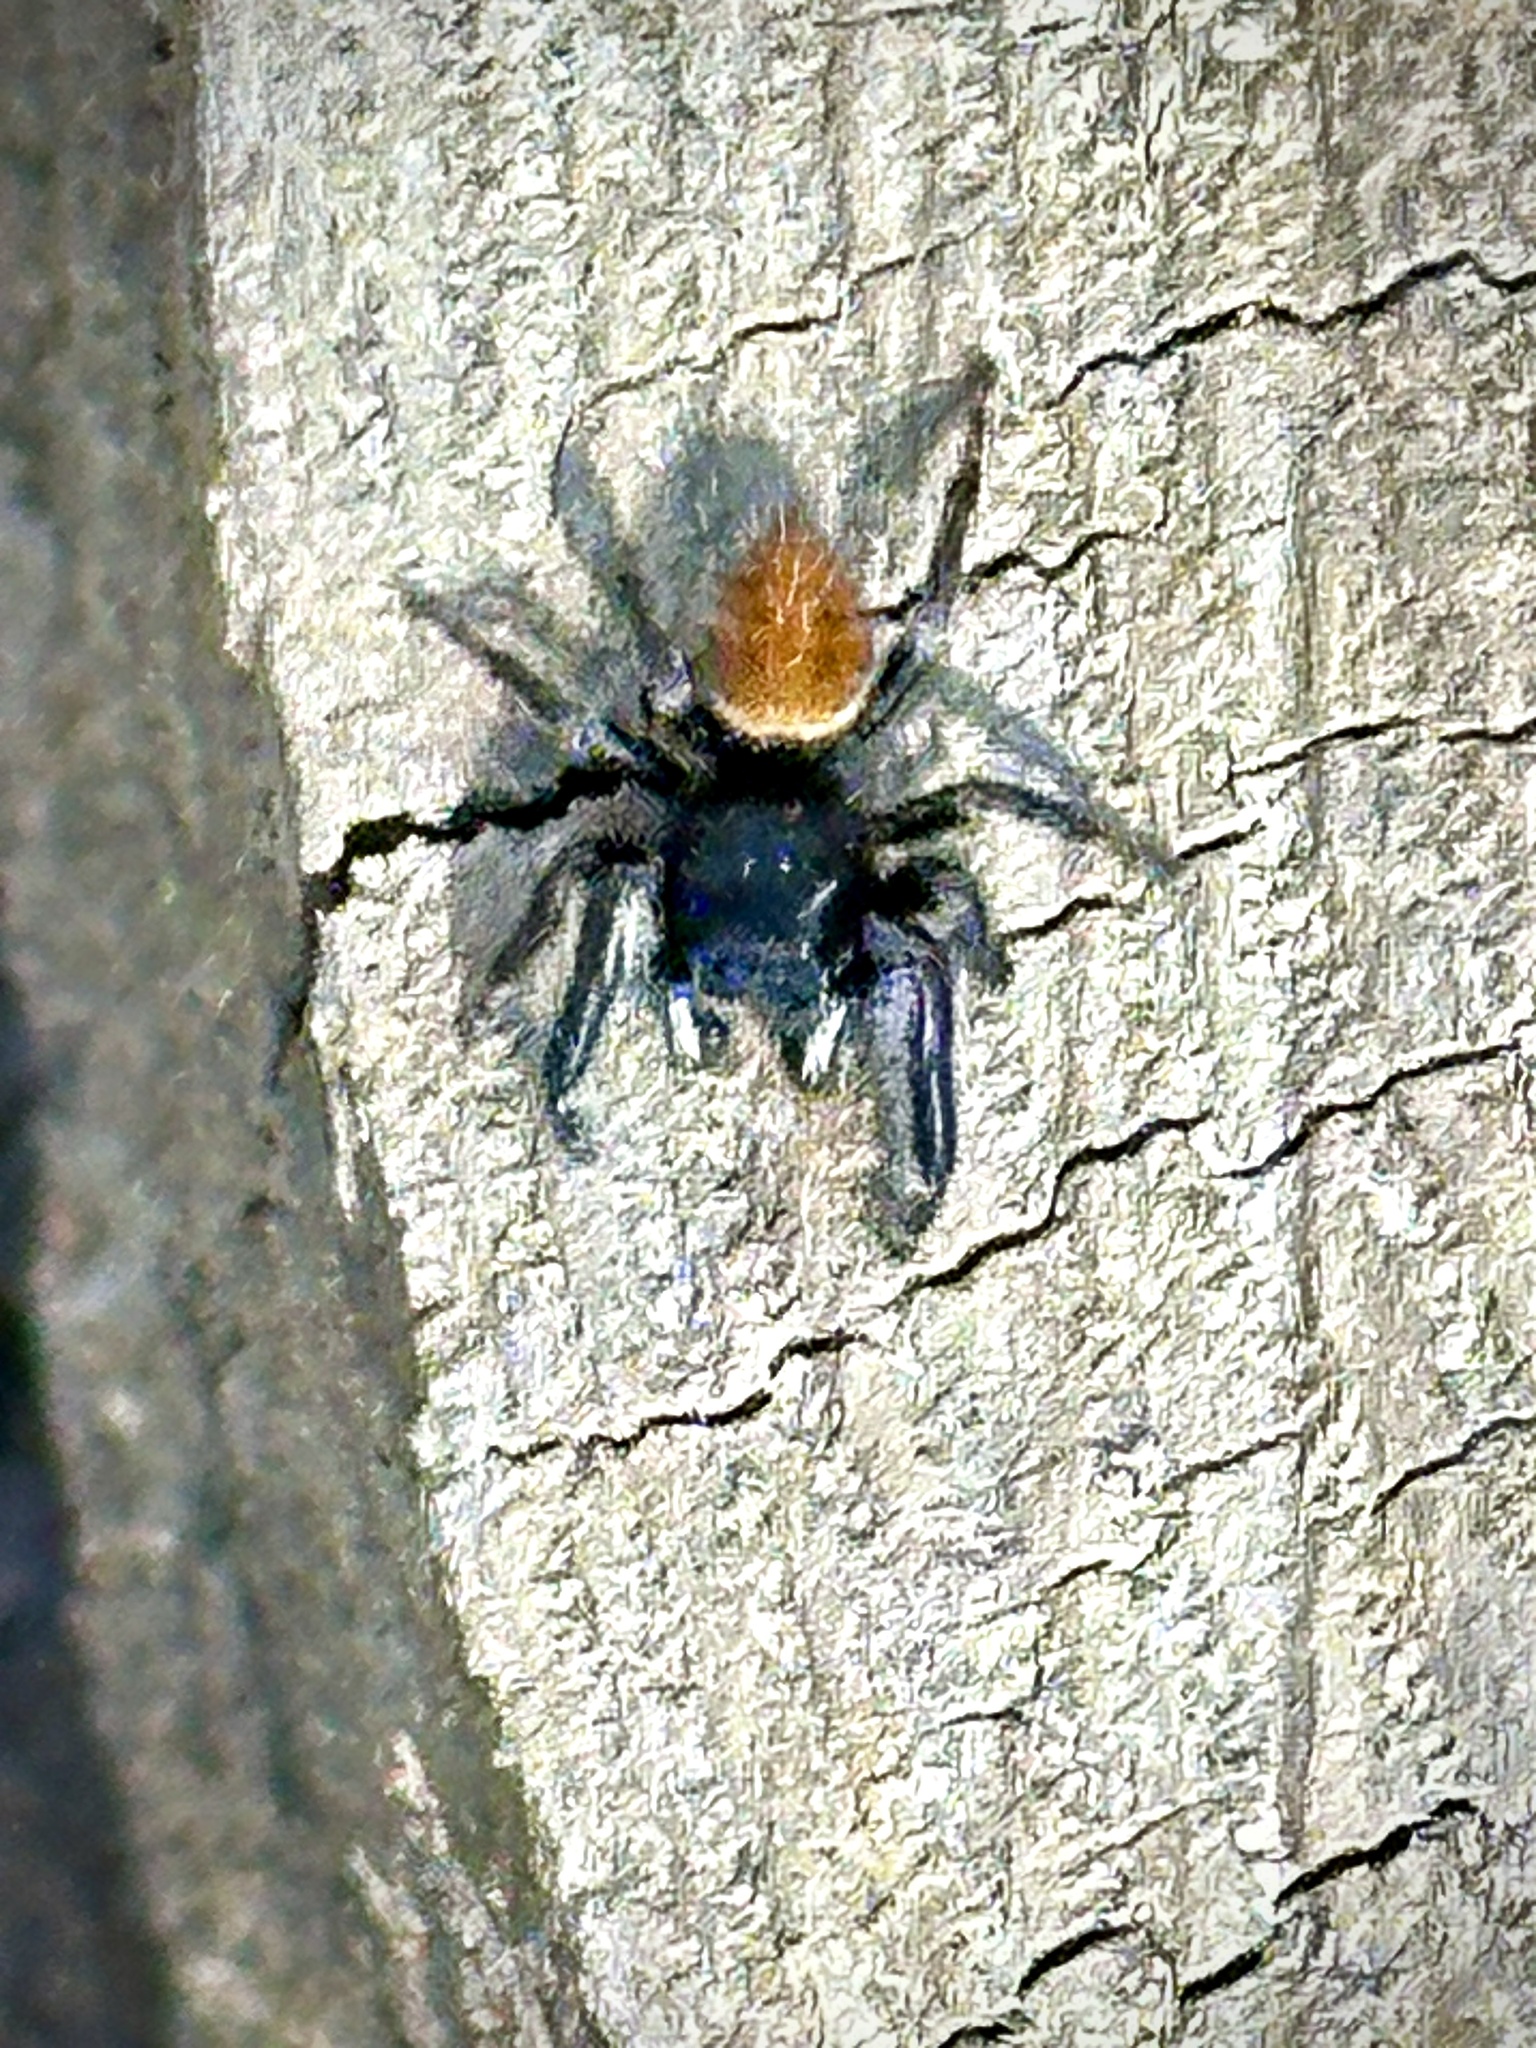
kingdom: Animalia
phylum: Arthropoda
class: Arachnida
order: Araneae
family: Salticidae
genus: Phidippus
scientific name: Phidippus princeps
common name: Grayish jumping spider
